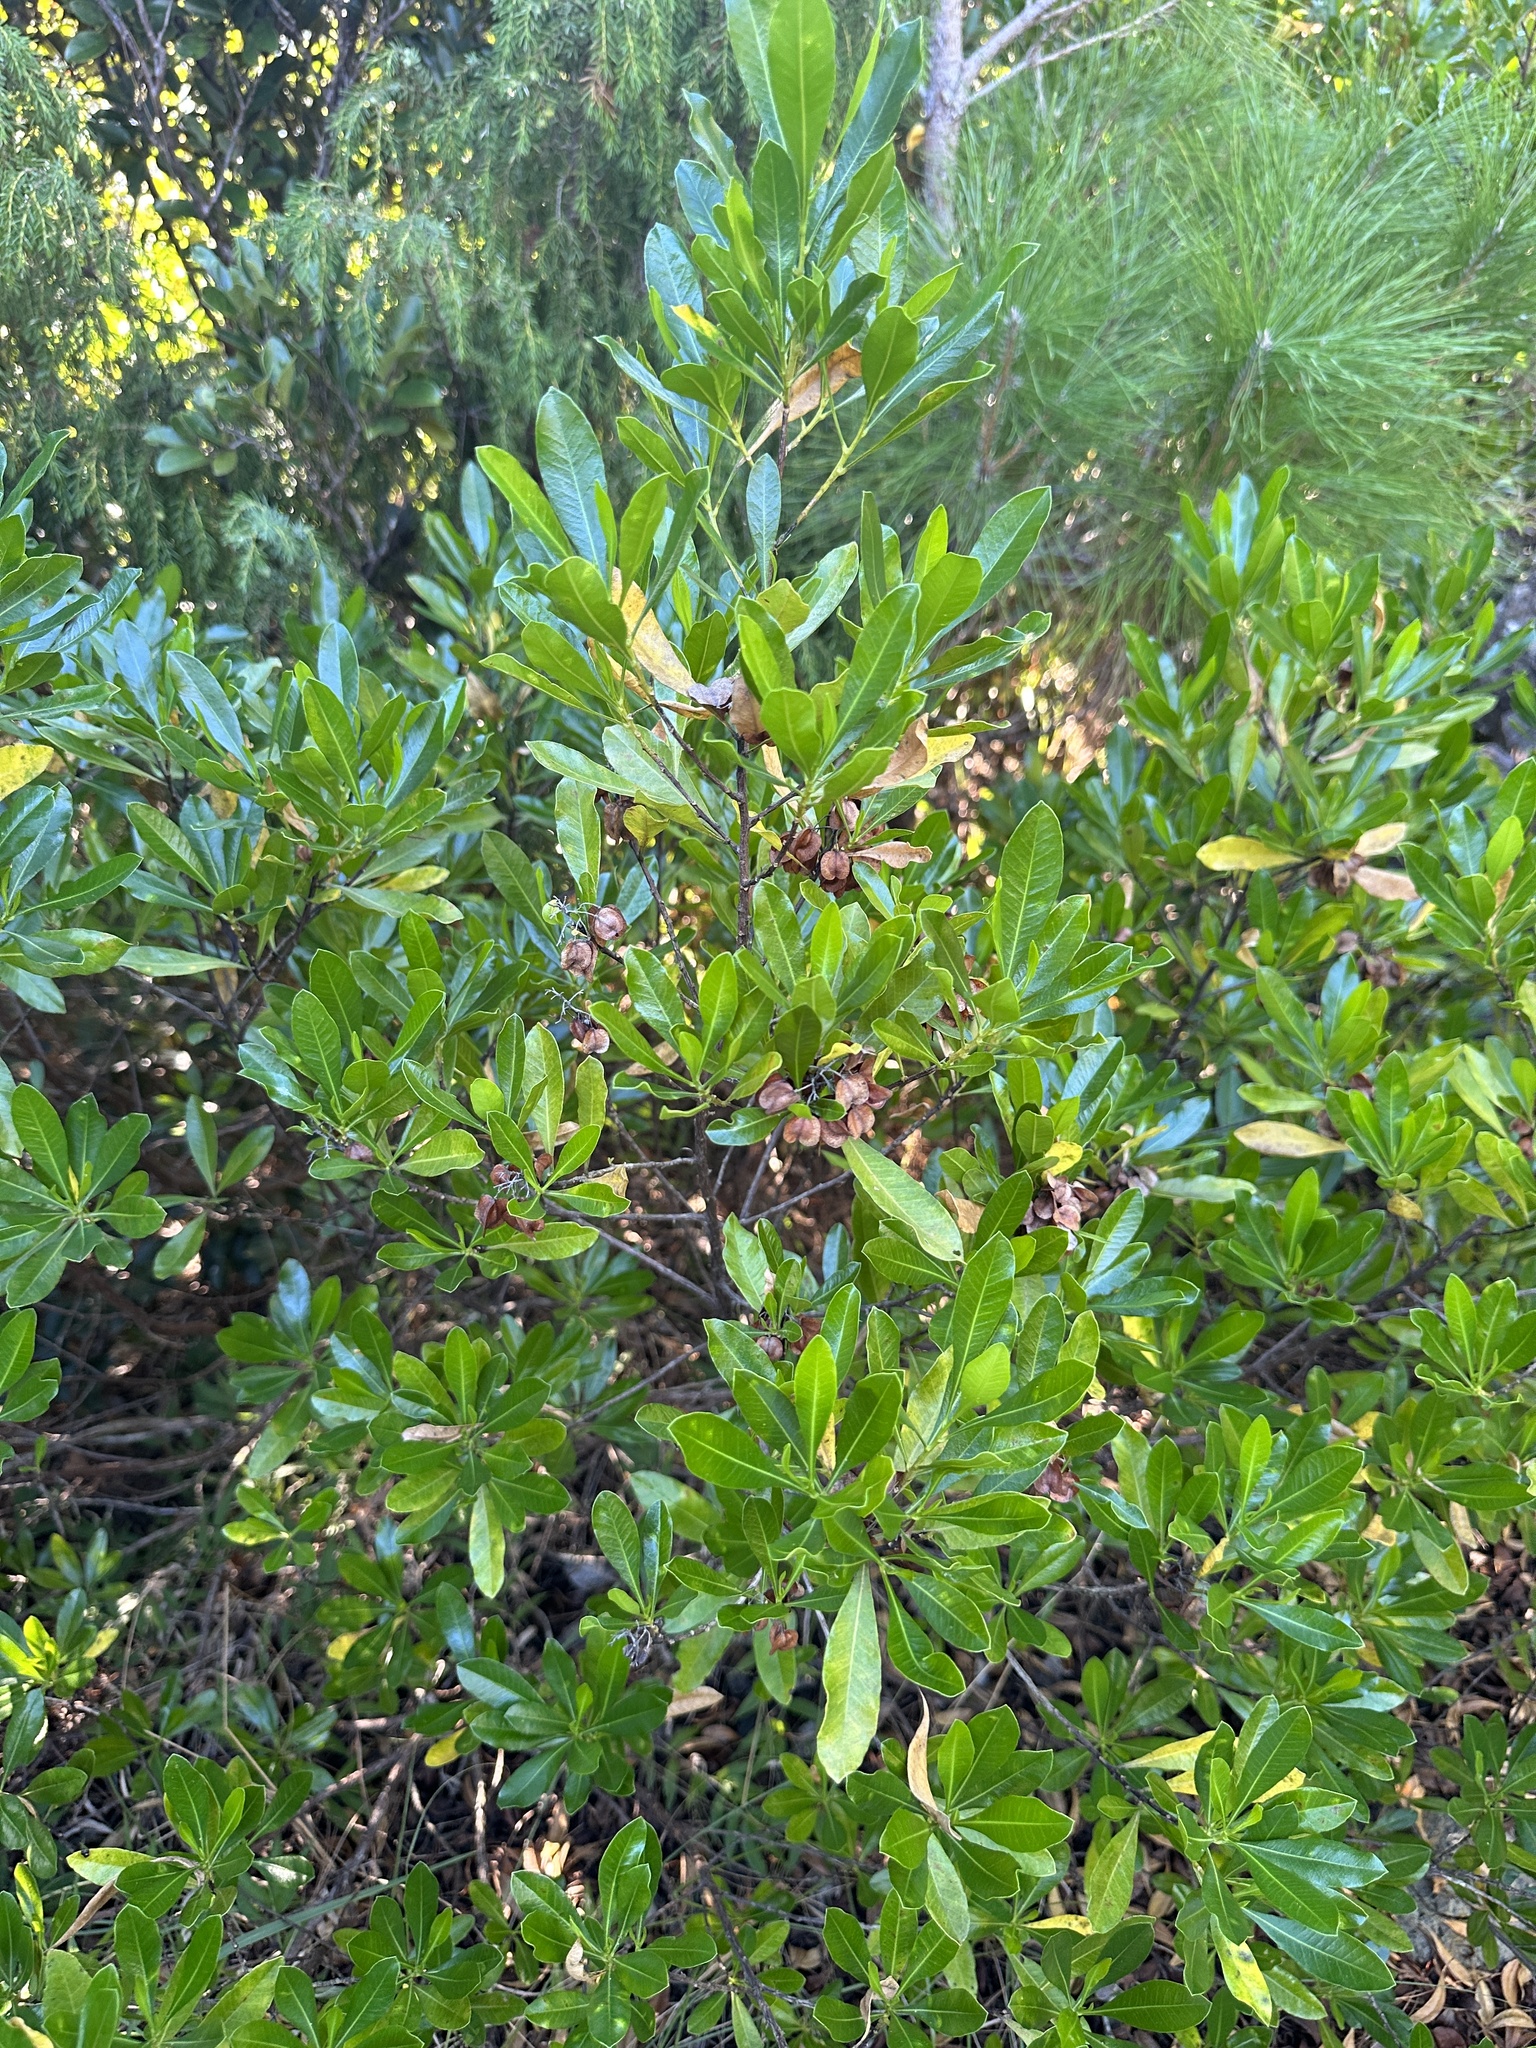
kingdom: Plantae
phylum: Tracheophyta
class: Magnoliopsida
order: Sapindales
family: Sapindaceae
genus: Dodonaea
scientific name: Dodonaea viscosa
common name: Hopbush
